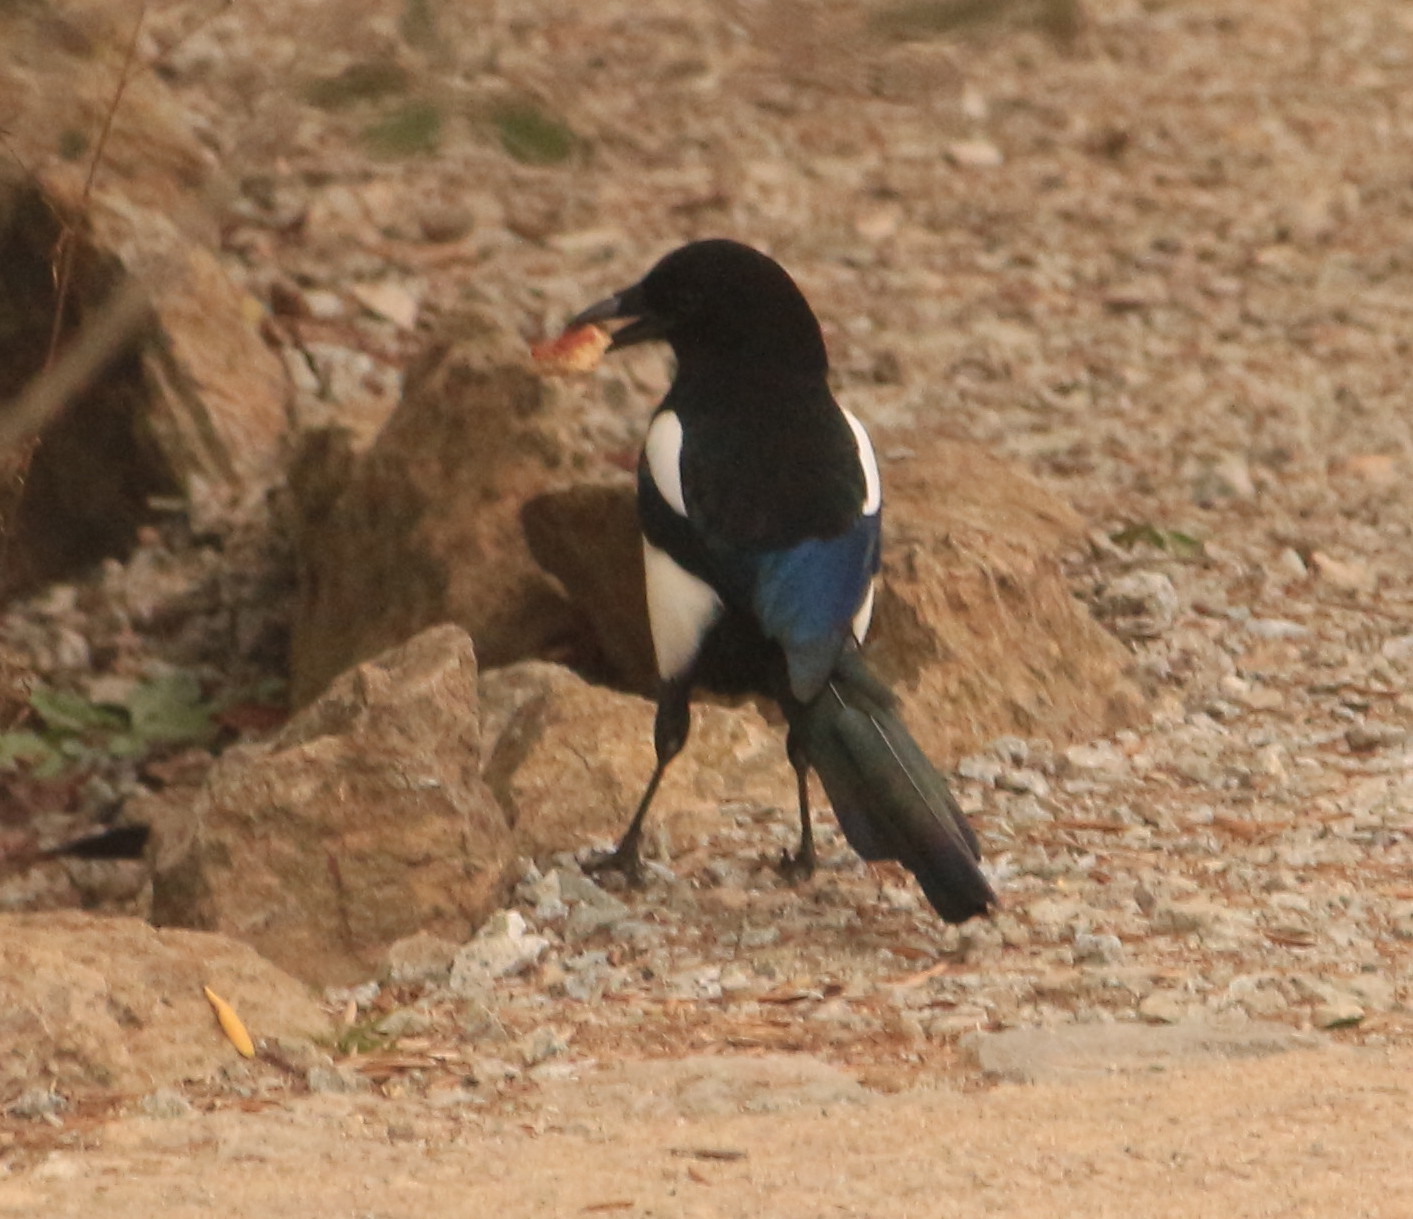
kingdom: Animalia
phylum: Chordata
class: Aves
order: Passeriformes
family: Corvidae
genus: Pica
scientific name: Pica pica
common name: Eurasian magpie
